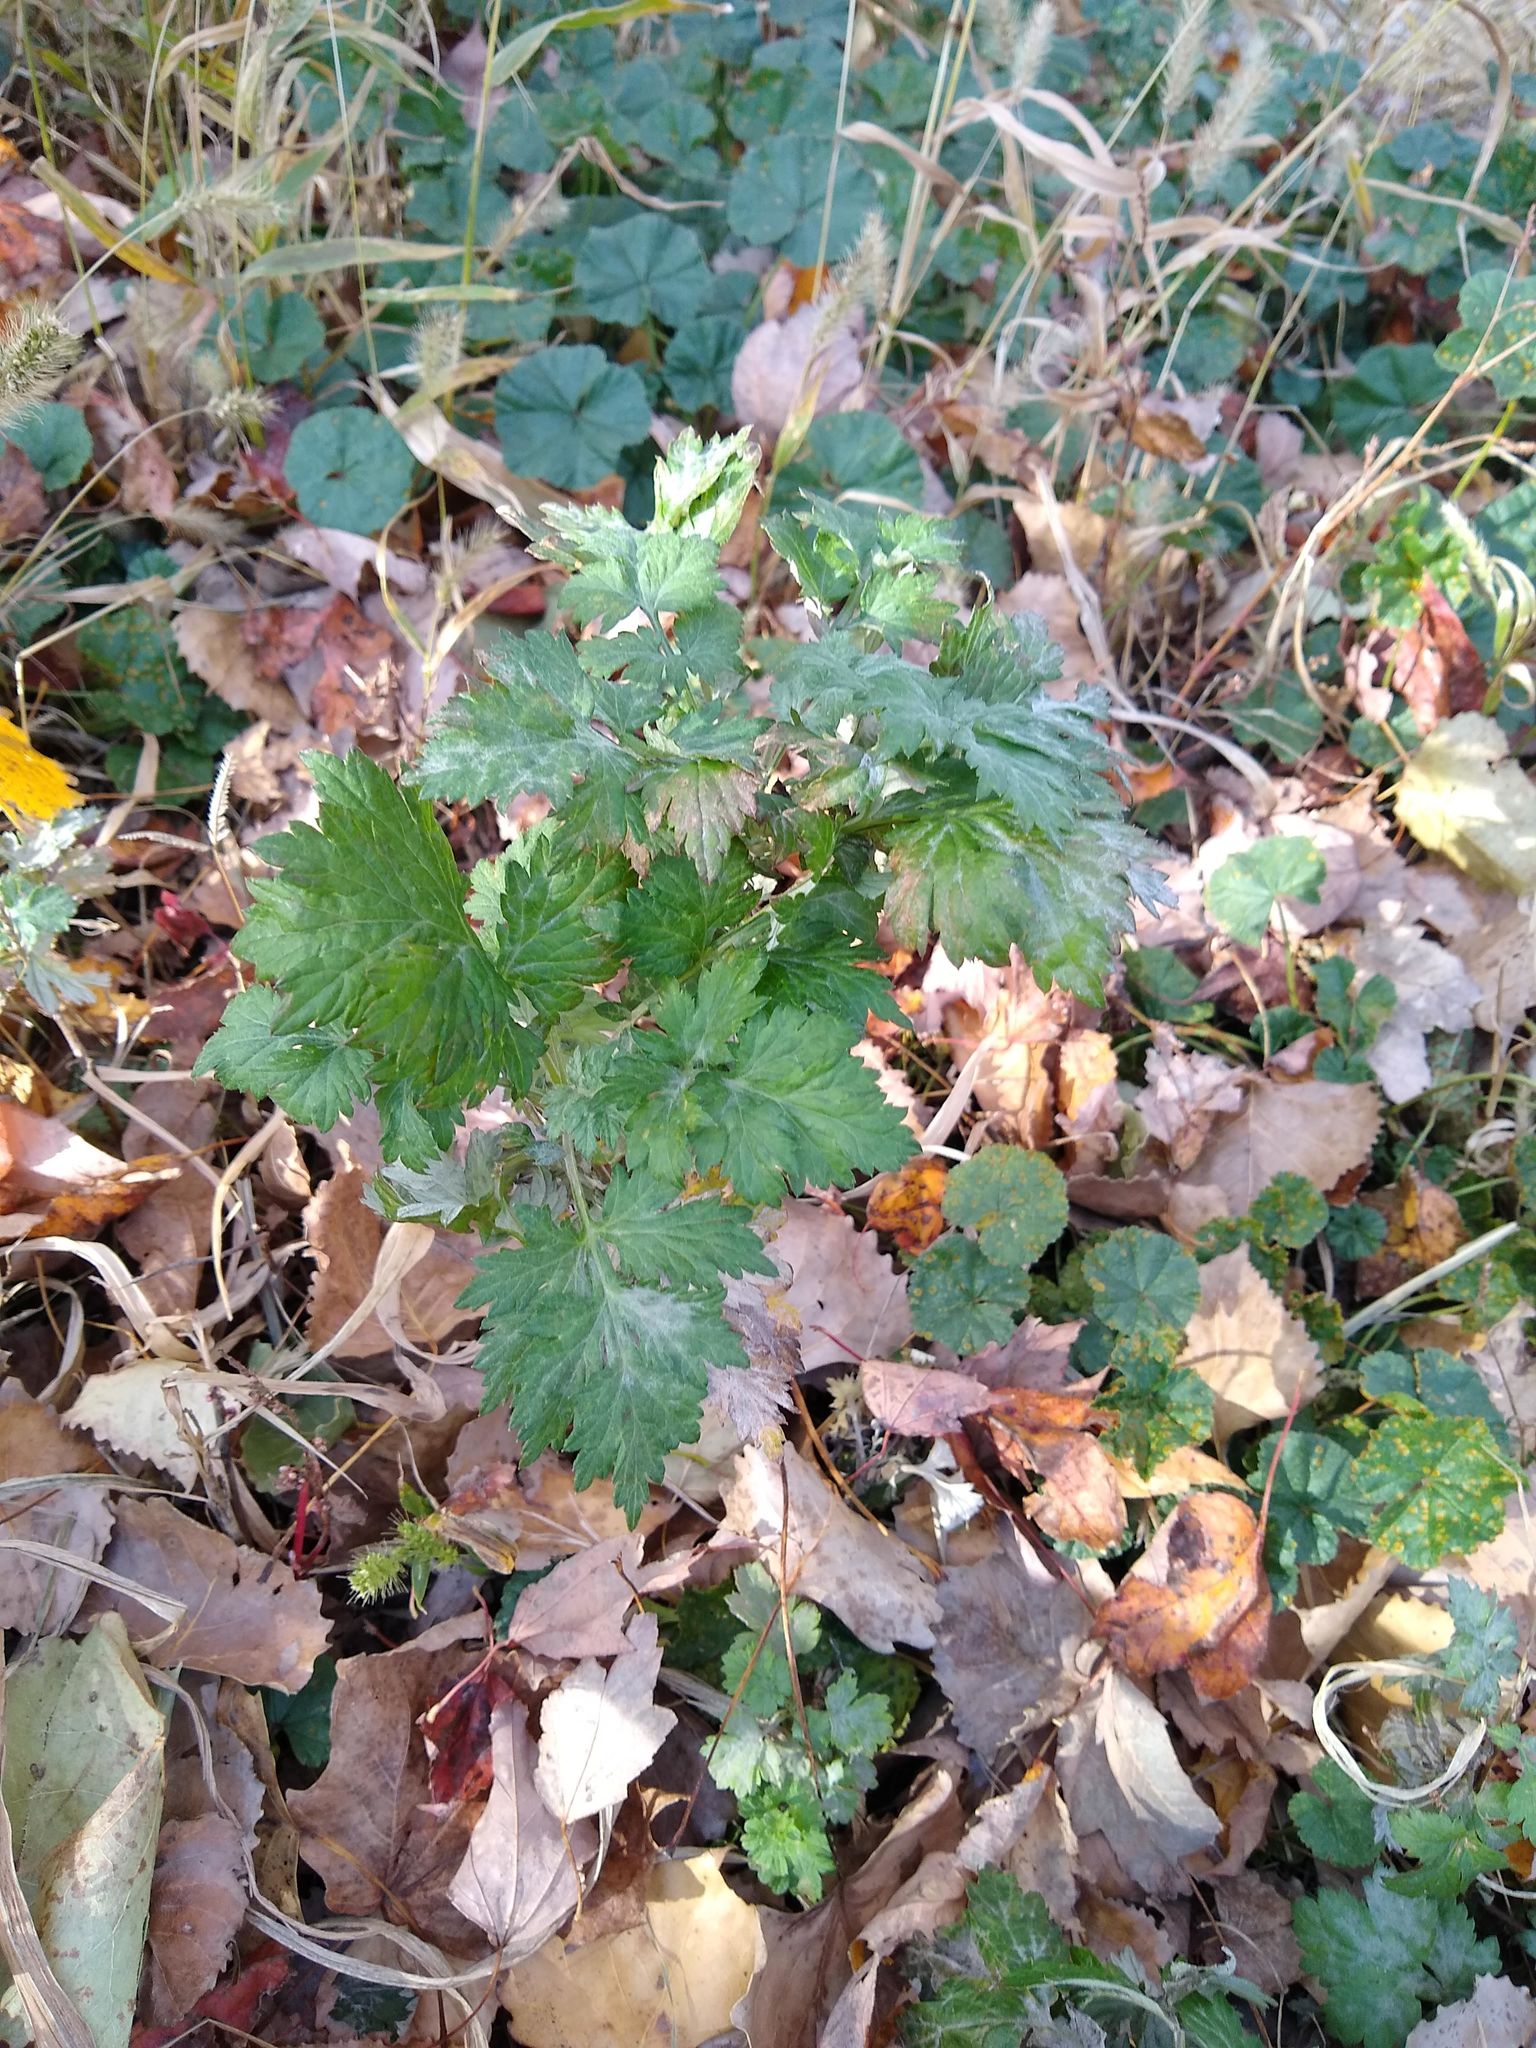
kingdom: Plantae
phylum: Tracheophyta
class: Magnoliopsida
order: Asterales
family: Asteraceae
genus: Artemisia
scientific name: Artemisia vulgaris
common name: Mugwort
